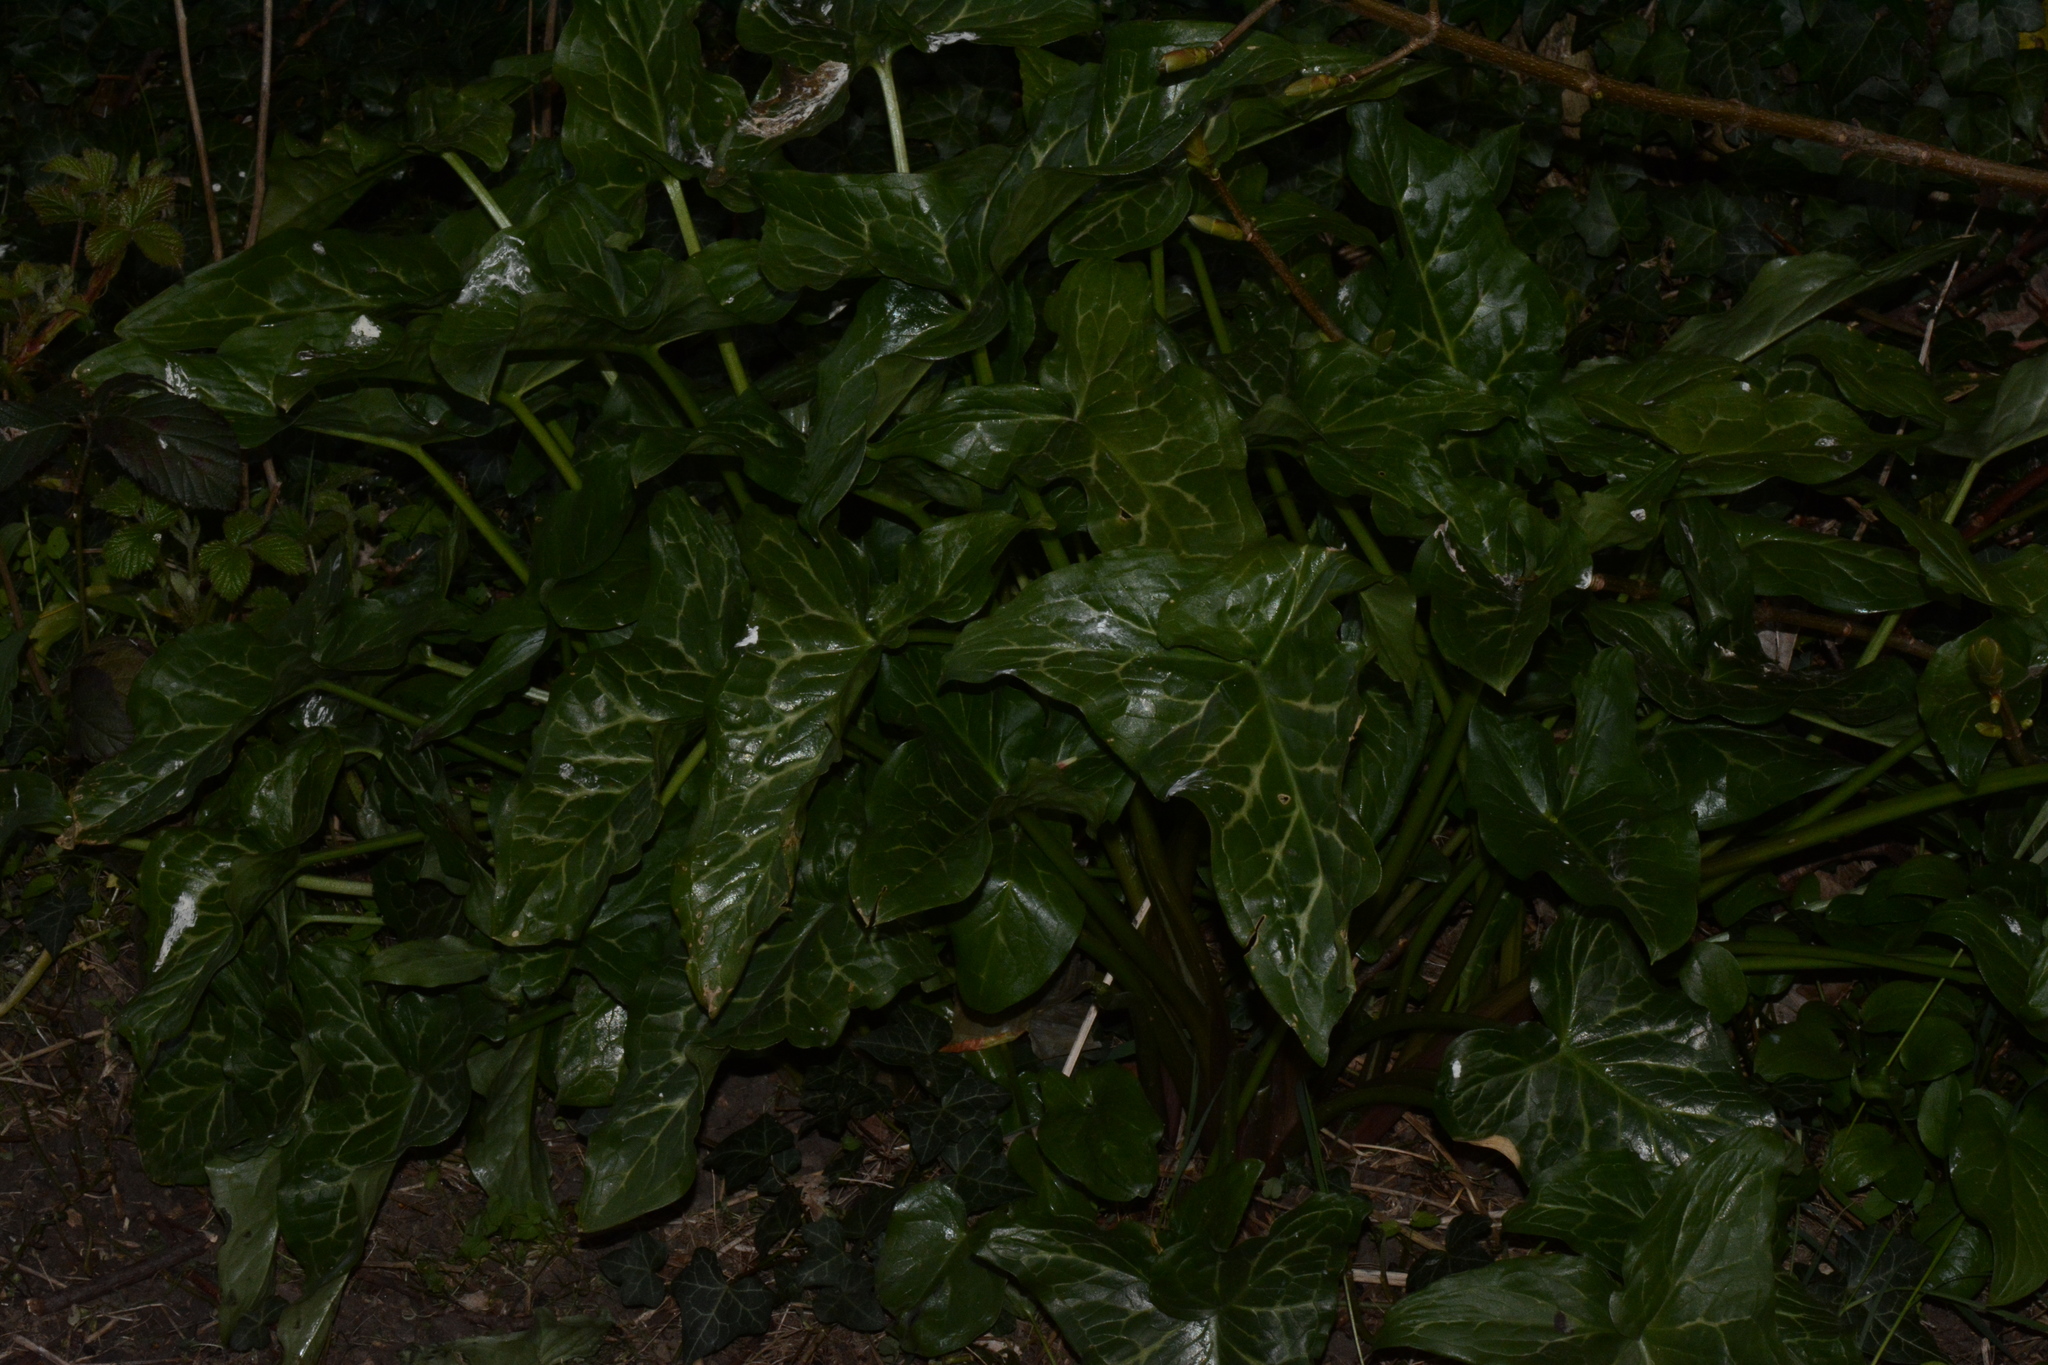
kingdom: Plantae
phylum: Tracheophyta
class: Liliopsida
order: Alismatales
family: Araceae
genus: Arum
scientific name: Arum italicum
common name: Italian lords-and-ladies
